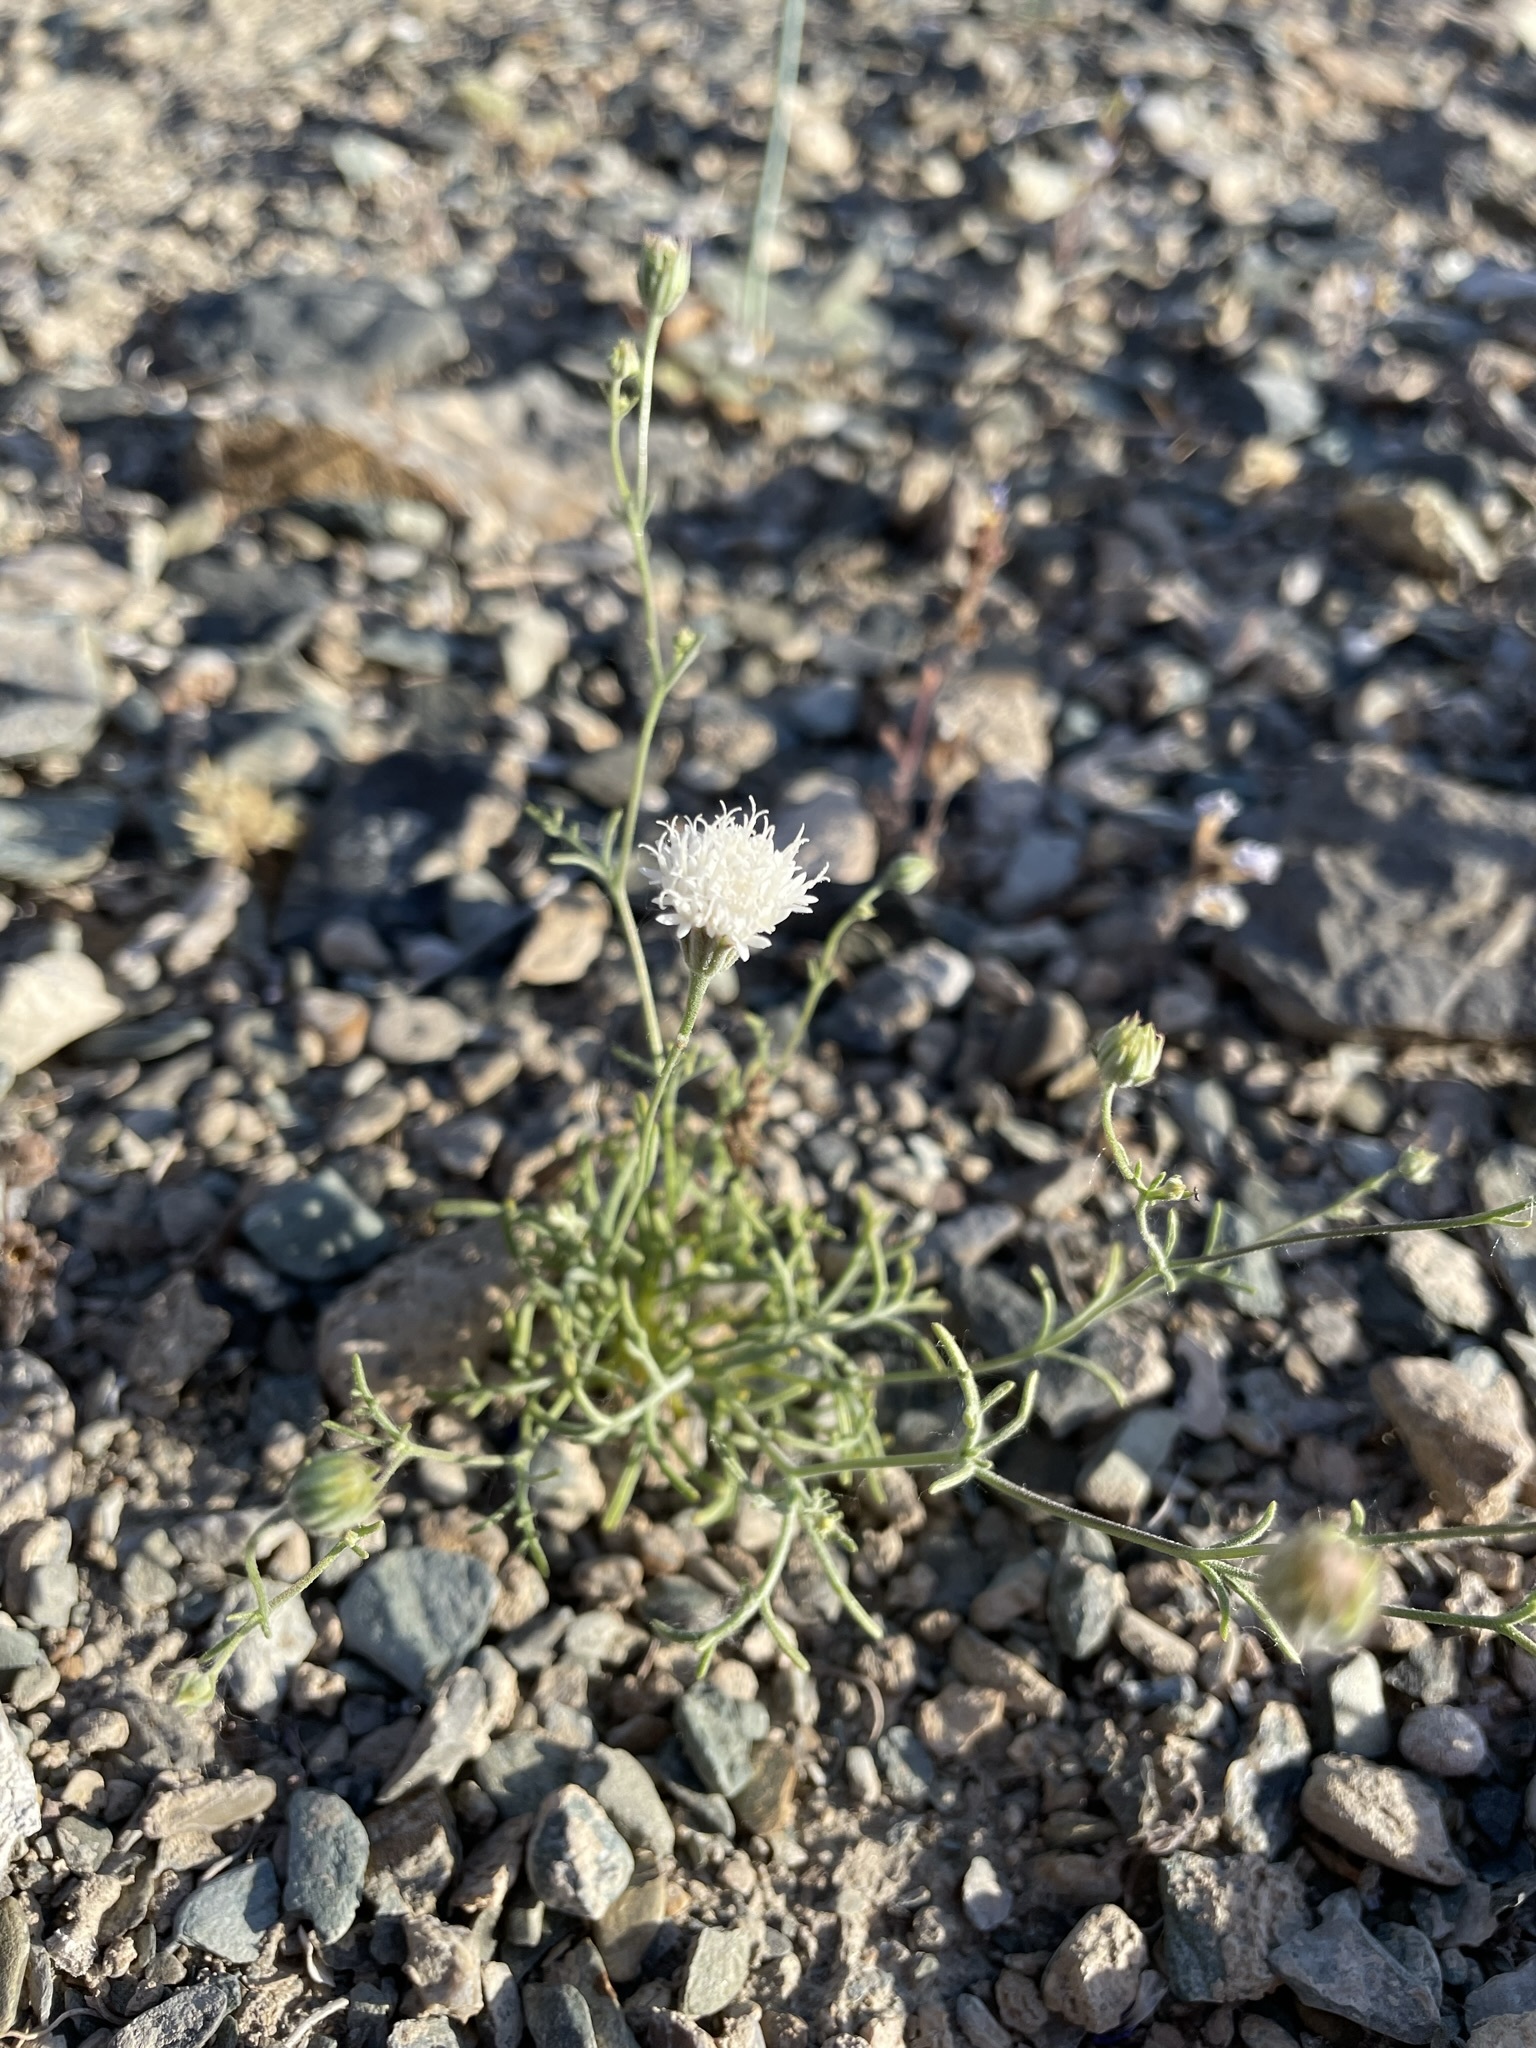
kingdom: Plantae
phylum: Tracheophyta
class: Magnoliopsida
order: Asterales
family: Asteraceae
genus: Chaenactis
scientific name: Chaenactis carphoclinia
